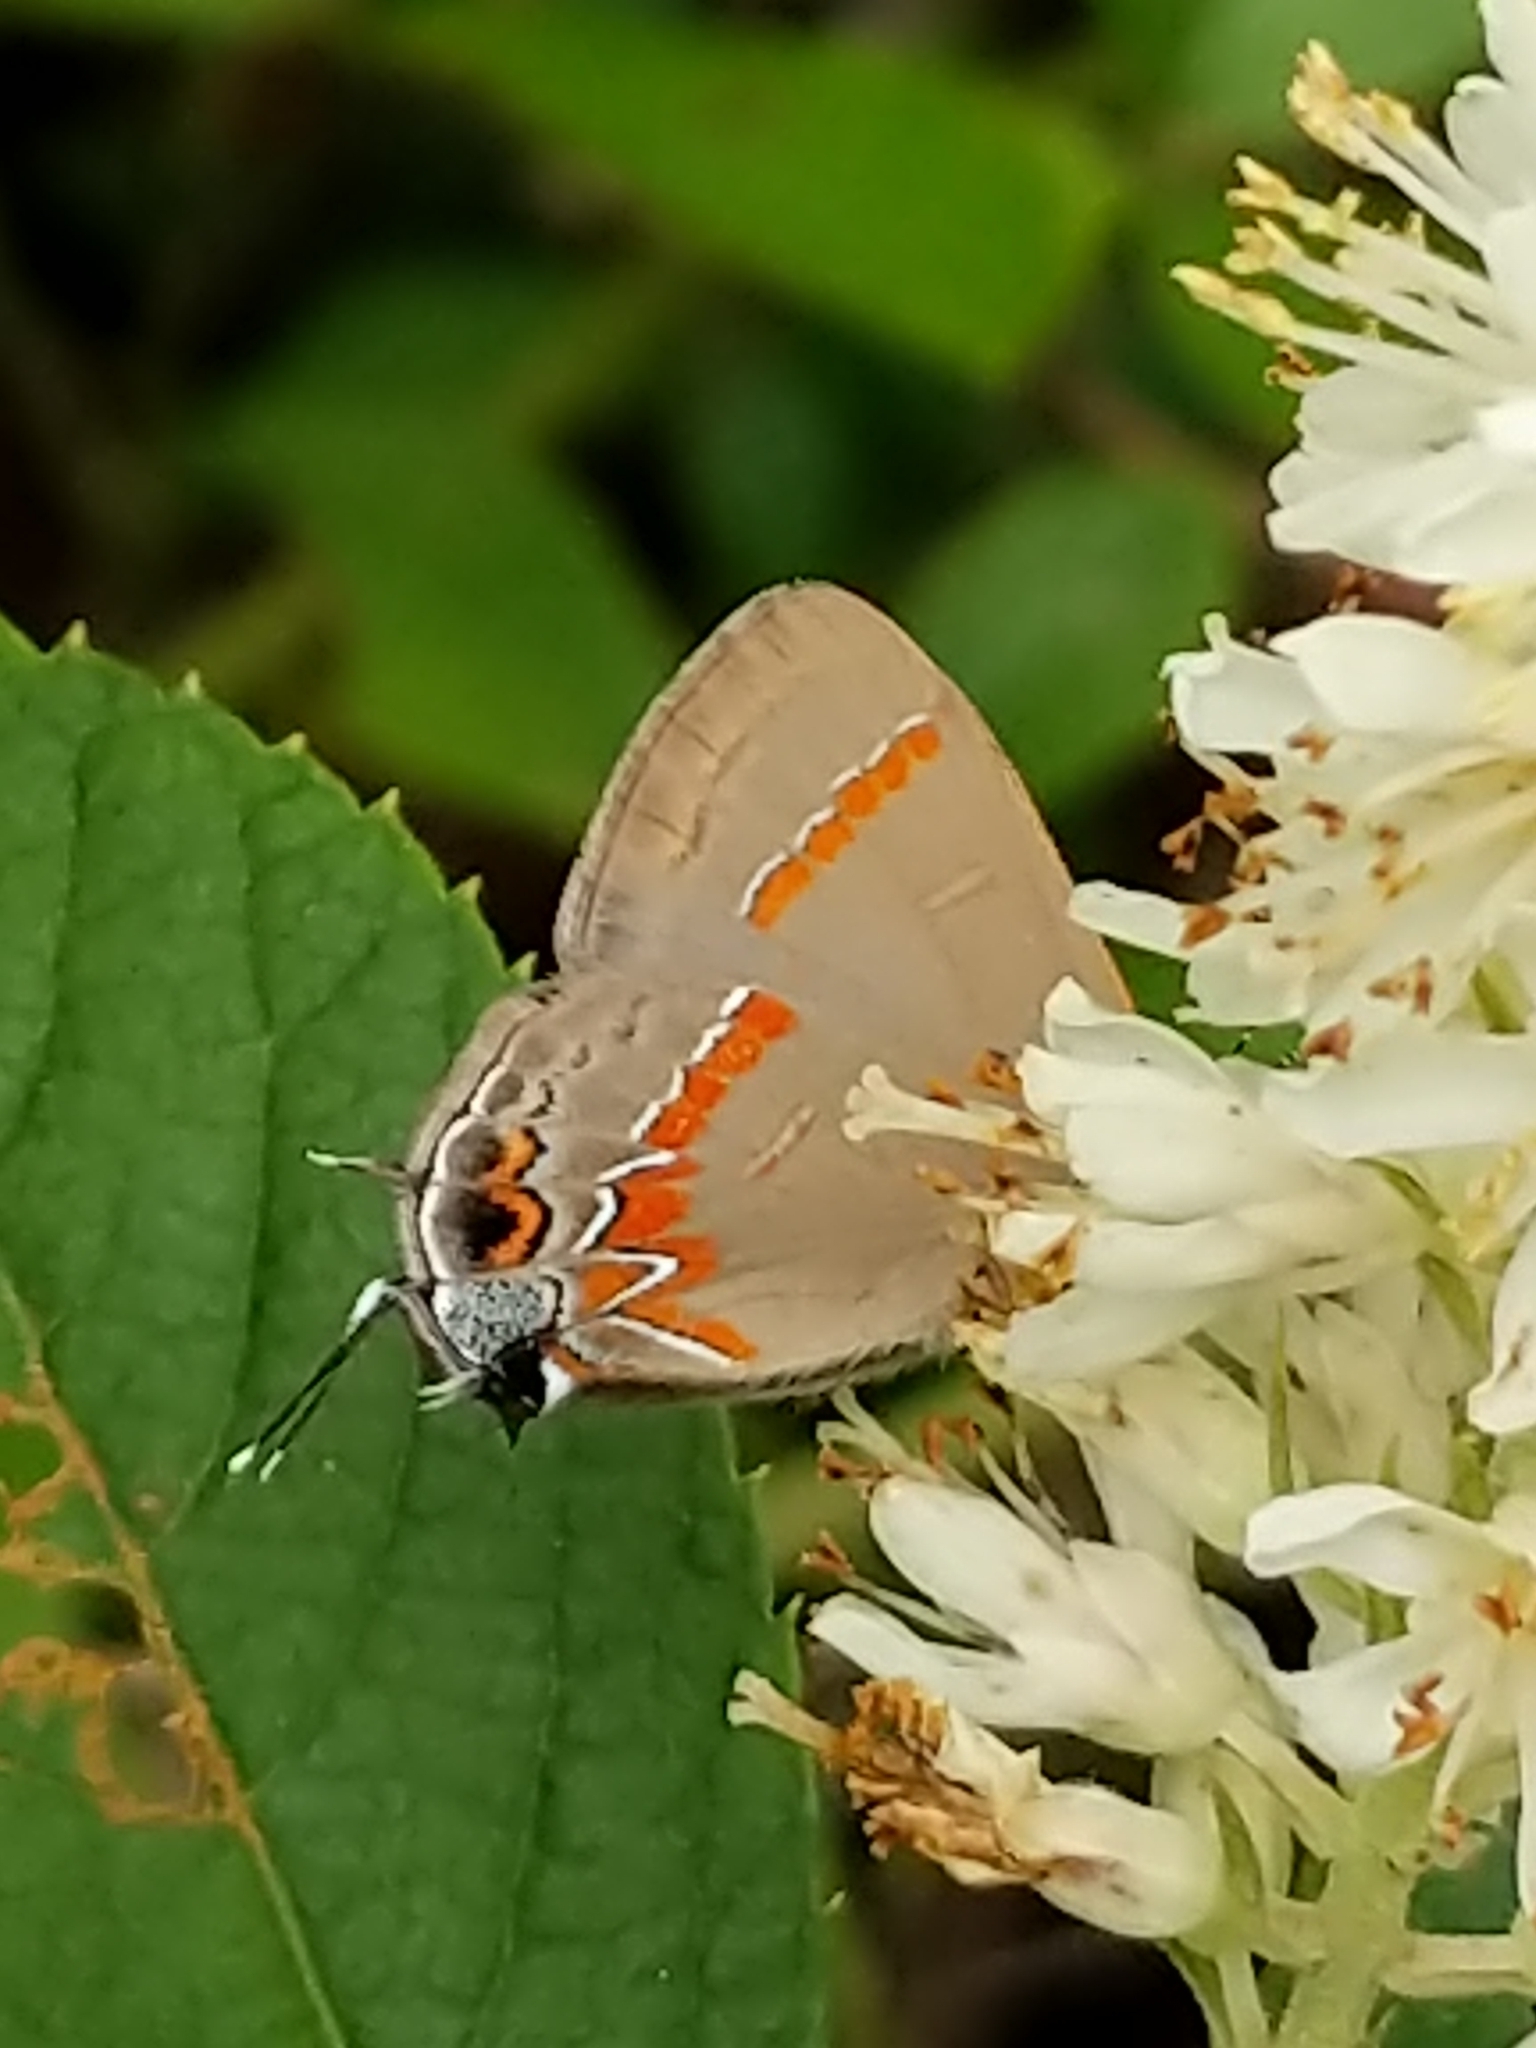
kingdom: Animalia
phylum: Arthropoda
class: Insecta
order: Lepidoptera
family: Lycaenidae
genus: Calycopis
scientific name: Calycopis cecrops
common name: Red-banded hairstreak
